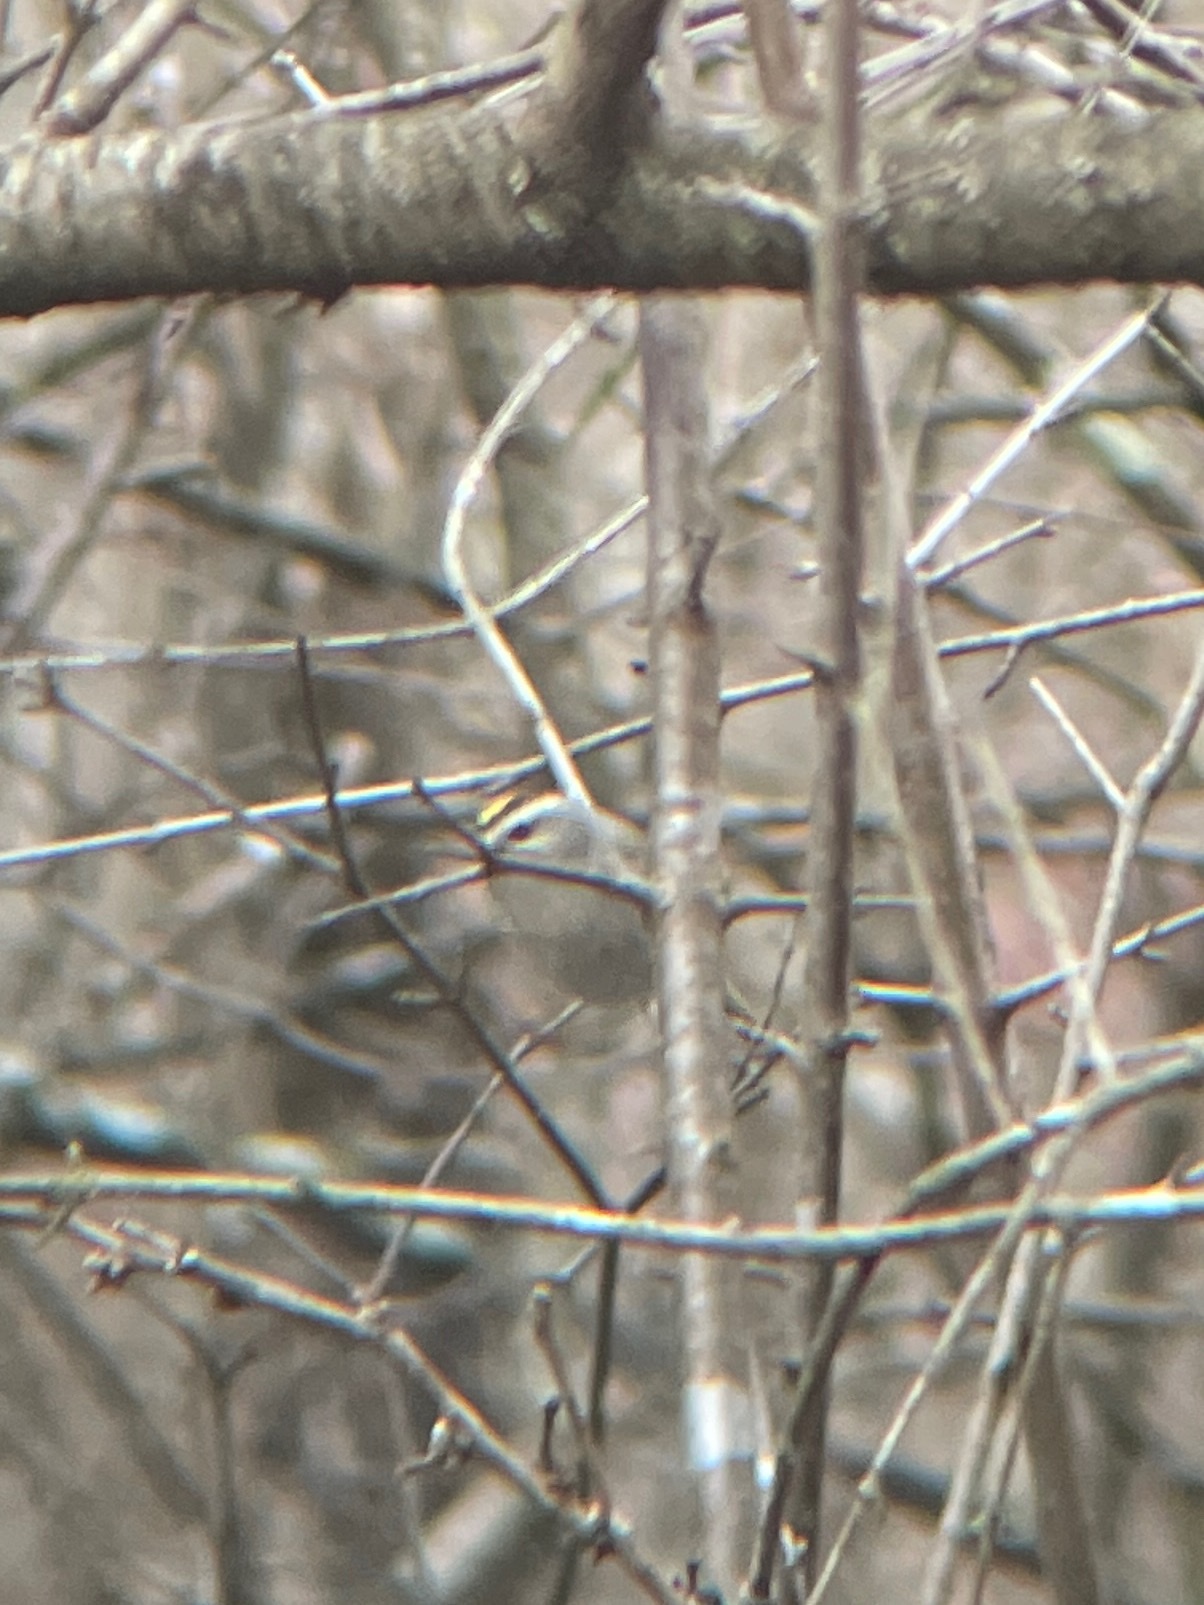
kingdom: Animalia
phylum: Chordata
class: Aves
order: Passeriformes
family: Regulidae
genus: Regulus
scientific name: Regulus satrapa
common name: Golden-crowned kinglet
